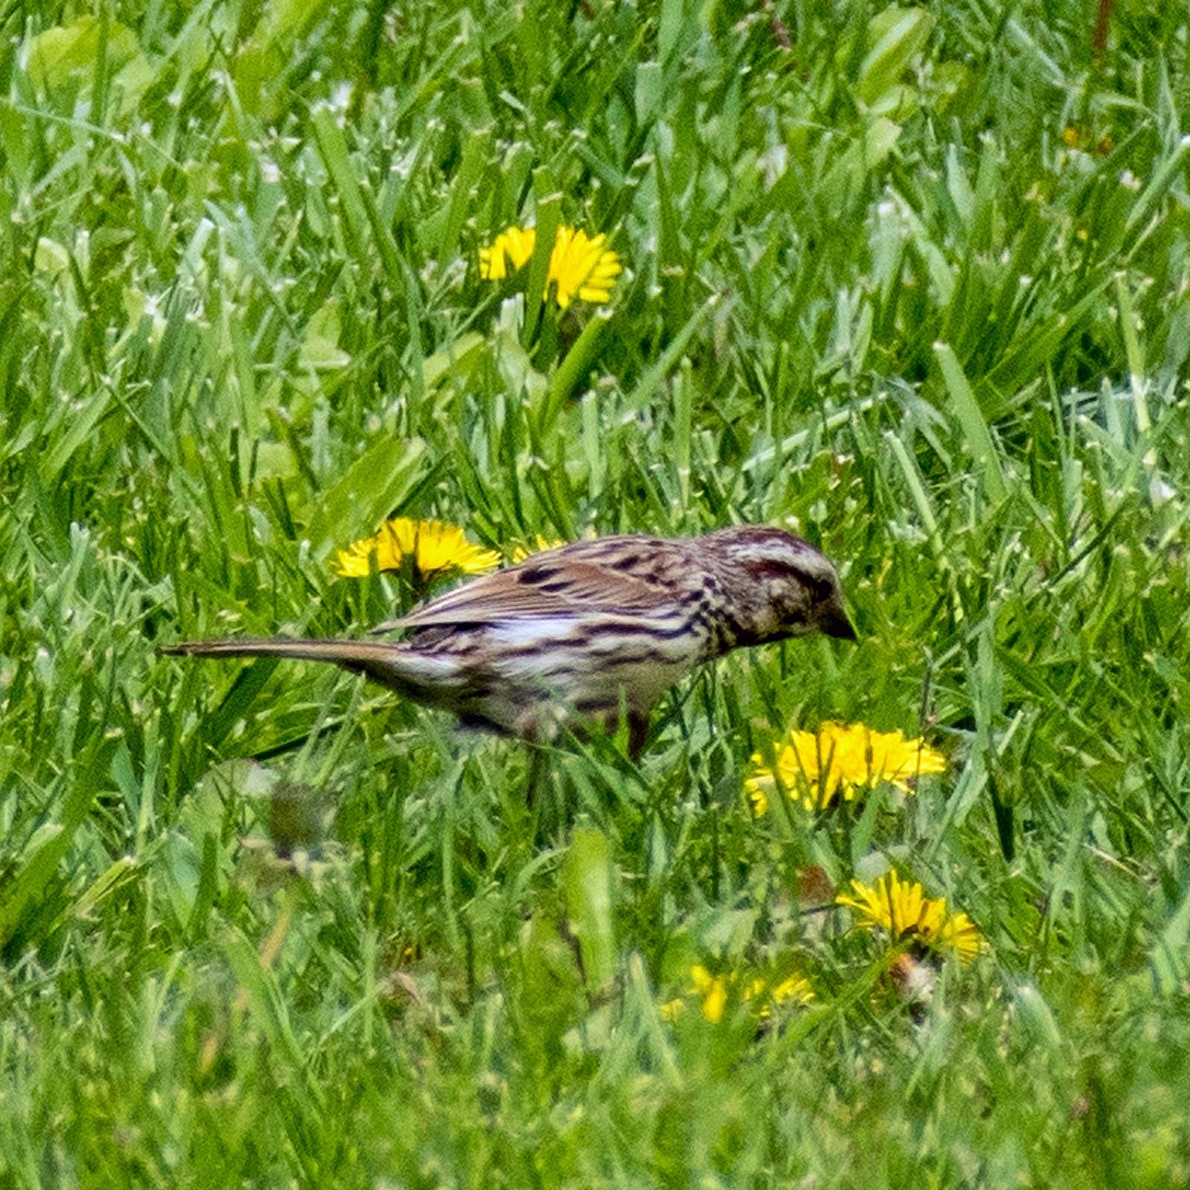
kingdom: Animalia
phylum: Chordata
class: Aves
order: Passeriformes
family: Passerellidae
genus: Melospiza
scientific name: Melospiza melodia
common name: Song sparrow
